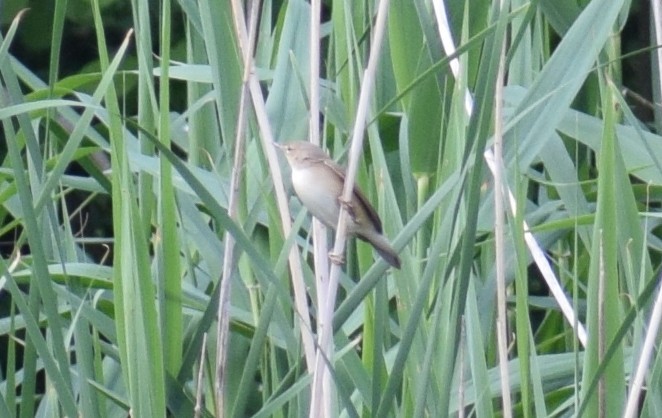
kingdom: Animalia
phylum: Chordata
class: Aves
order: Passeriformes
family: Acrocephalidae
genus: Acrocephalus
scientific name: Acrocephalus scirpaceus
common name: Eurasian reed warbler
